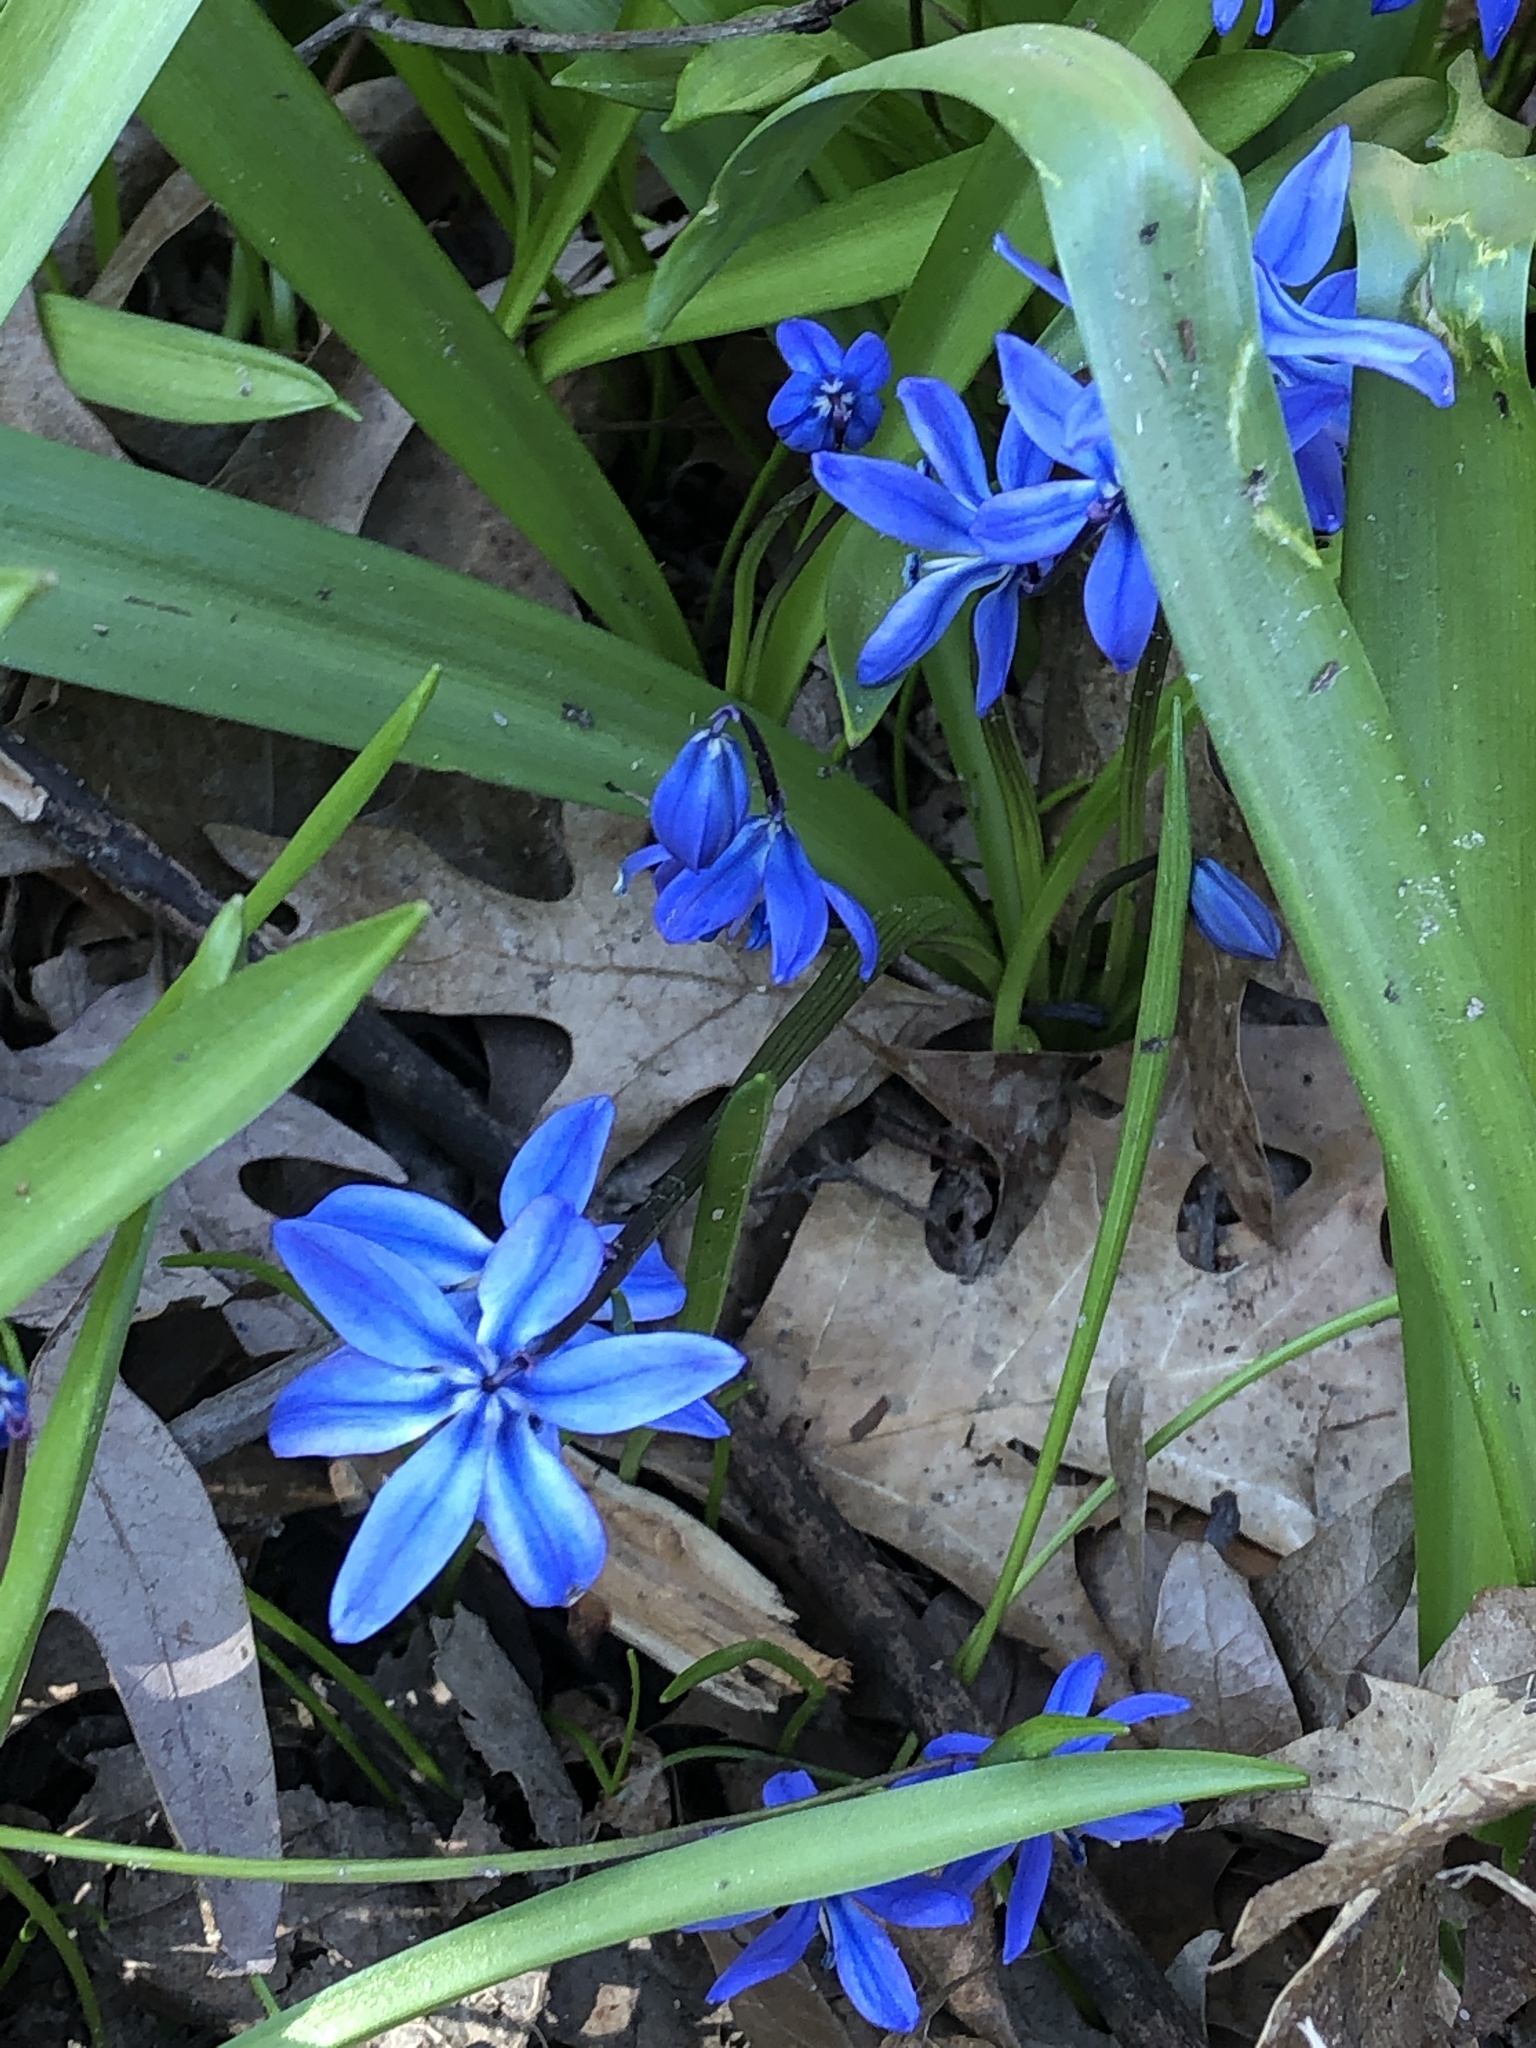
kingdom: Plantae
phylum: Tracheophyta
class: Liliopsida
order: Asparagales
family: Asparagaceae
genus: Scilla
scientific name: Scilla siberica
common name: Siberian squill
